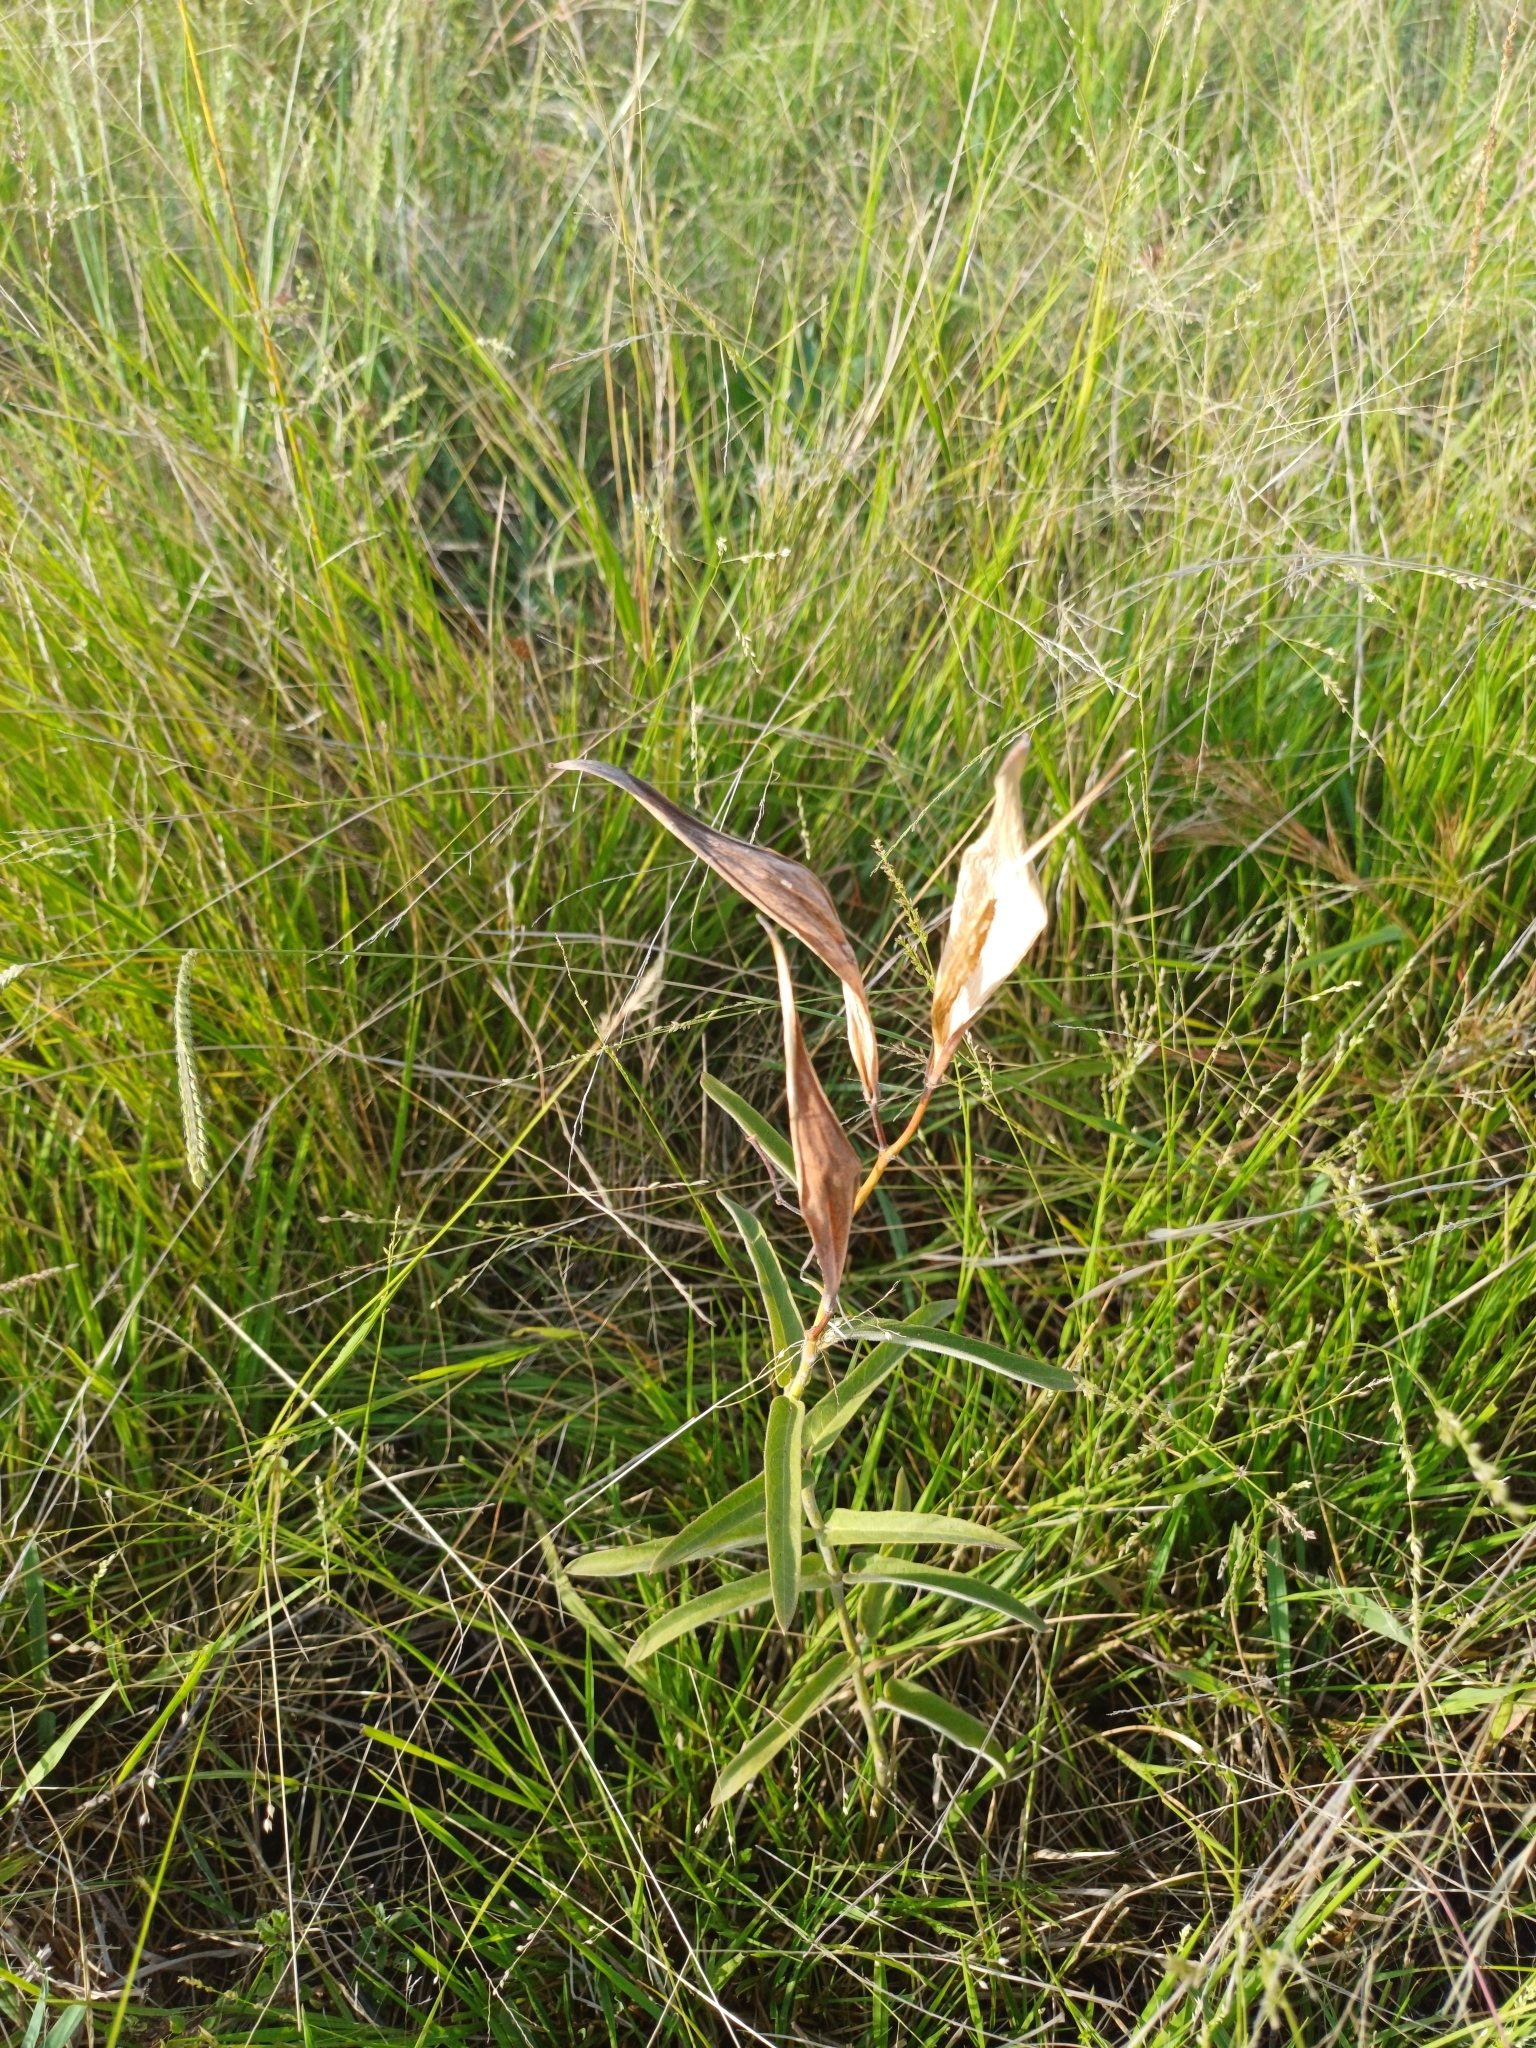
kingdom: Plantae
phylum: Tracheophyta
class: Magnoliopsida
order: Gentianales
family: Apocynaceae
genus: Oxypetalum
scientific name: Oxypetalum solanoides
